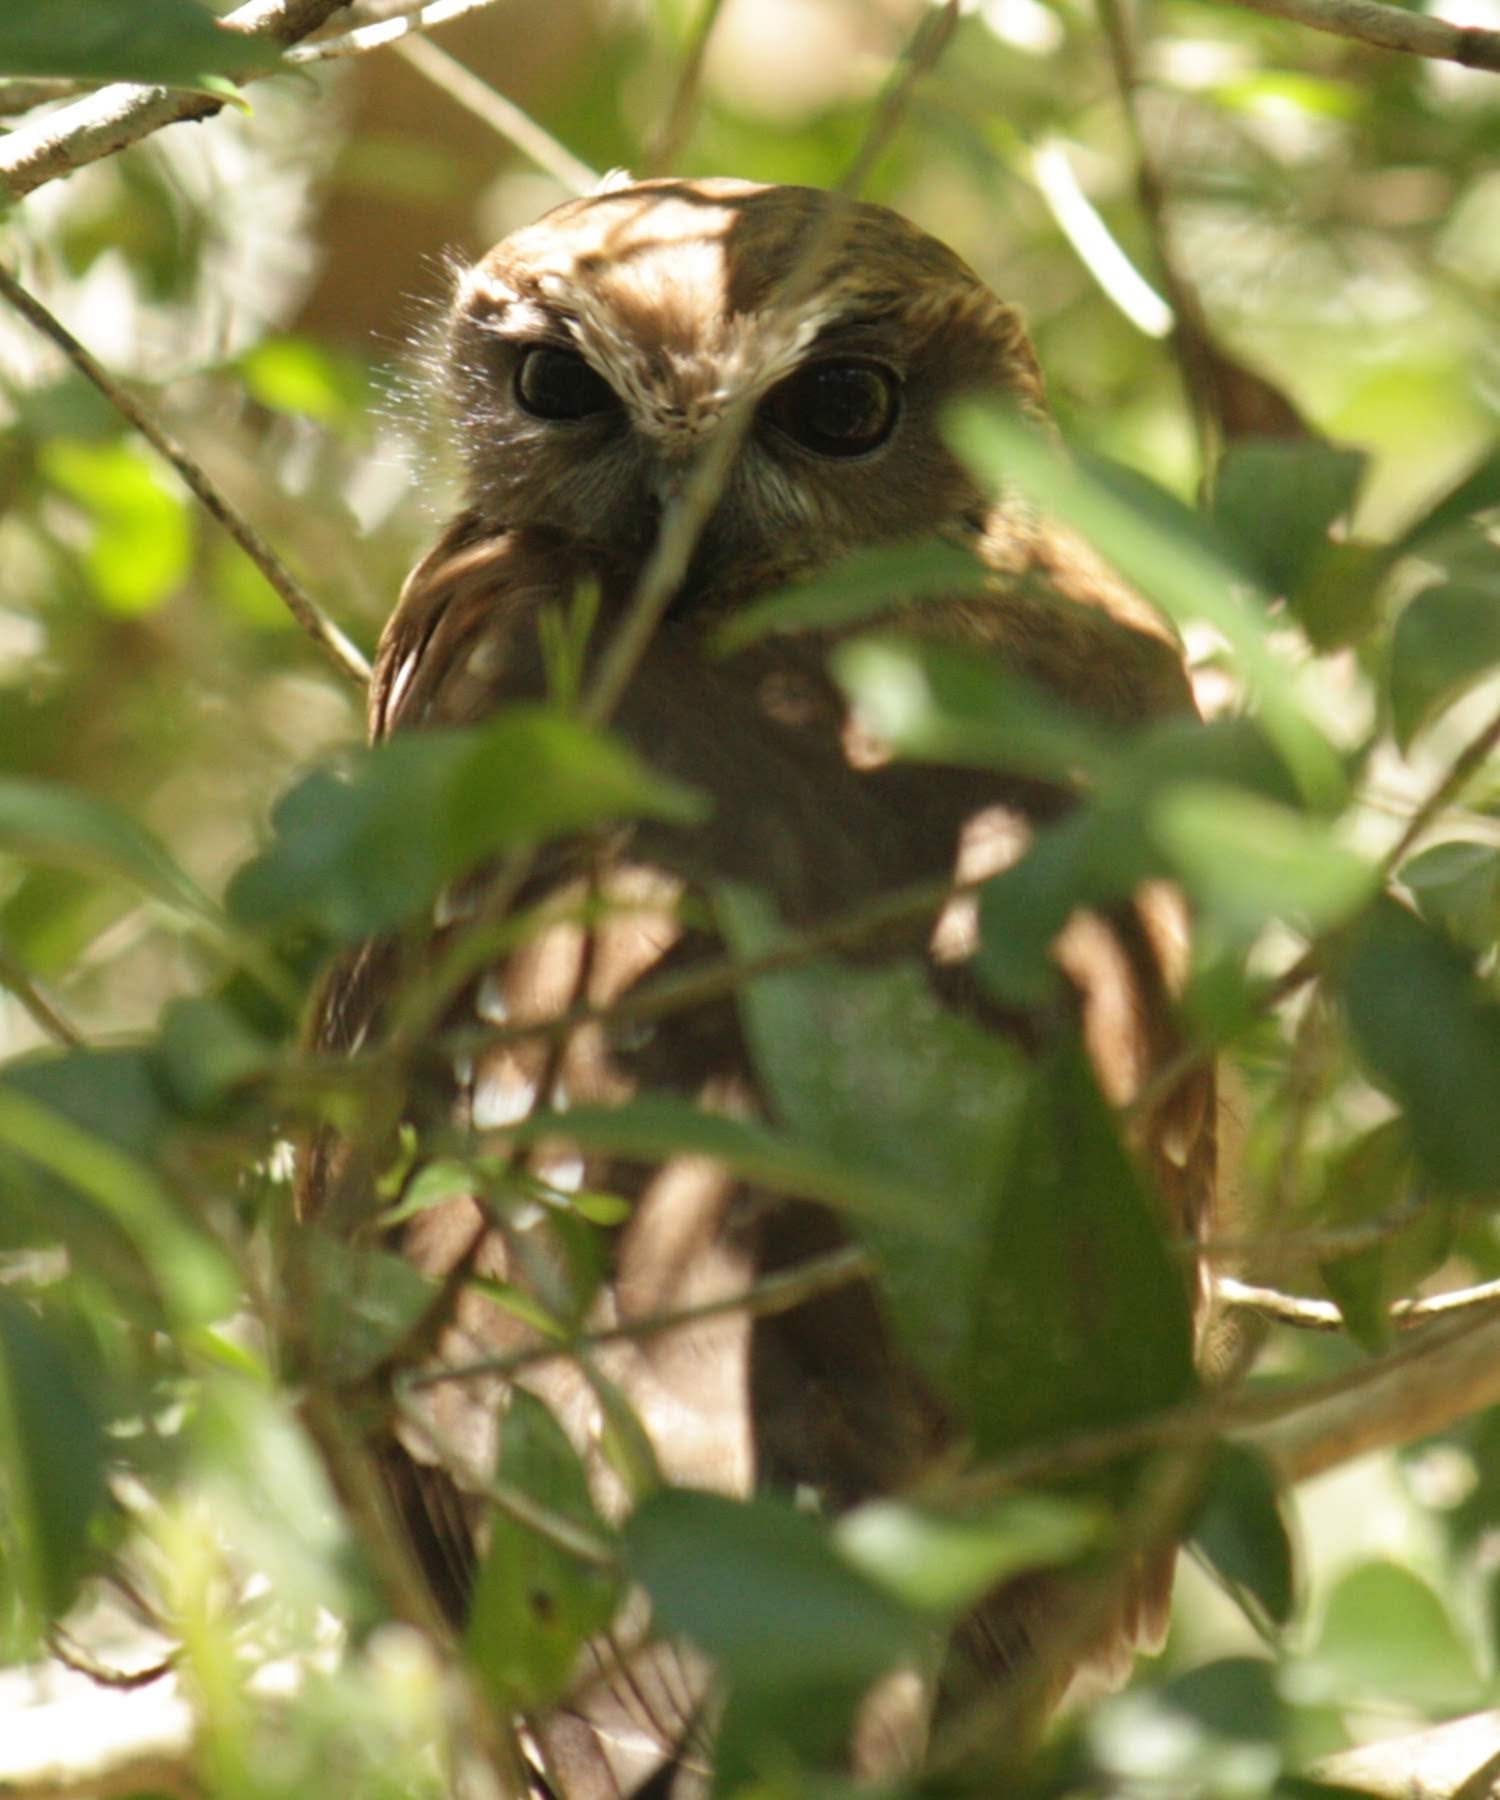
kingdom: Animalia
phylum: Chordata
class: Aves
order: Strigiformes
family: Strigidae
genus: Ninox
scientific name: Ninox boobook
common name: Southern boobook
